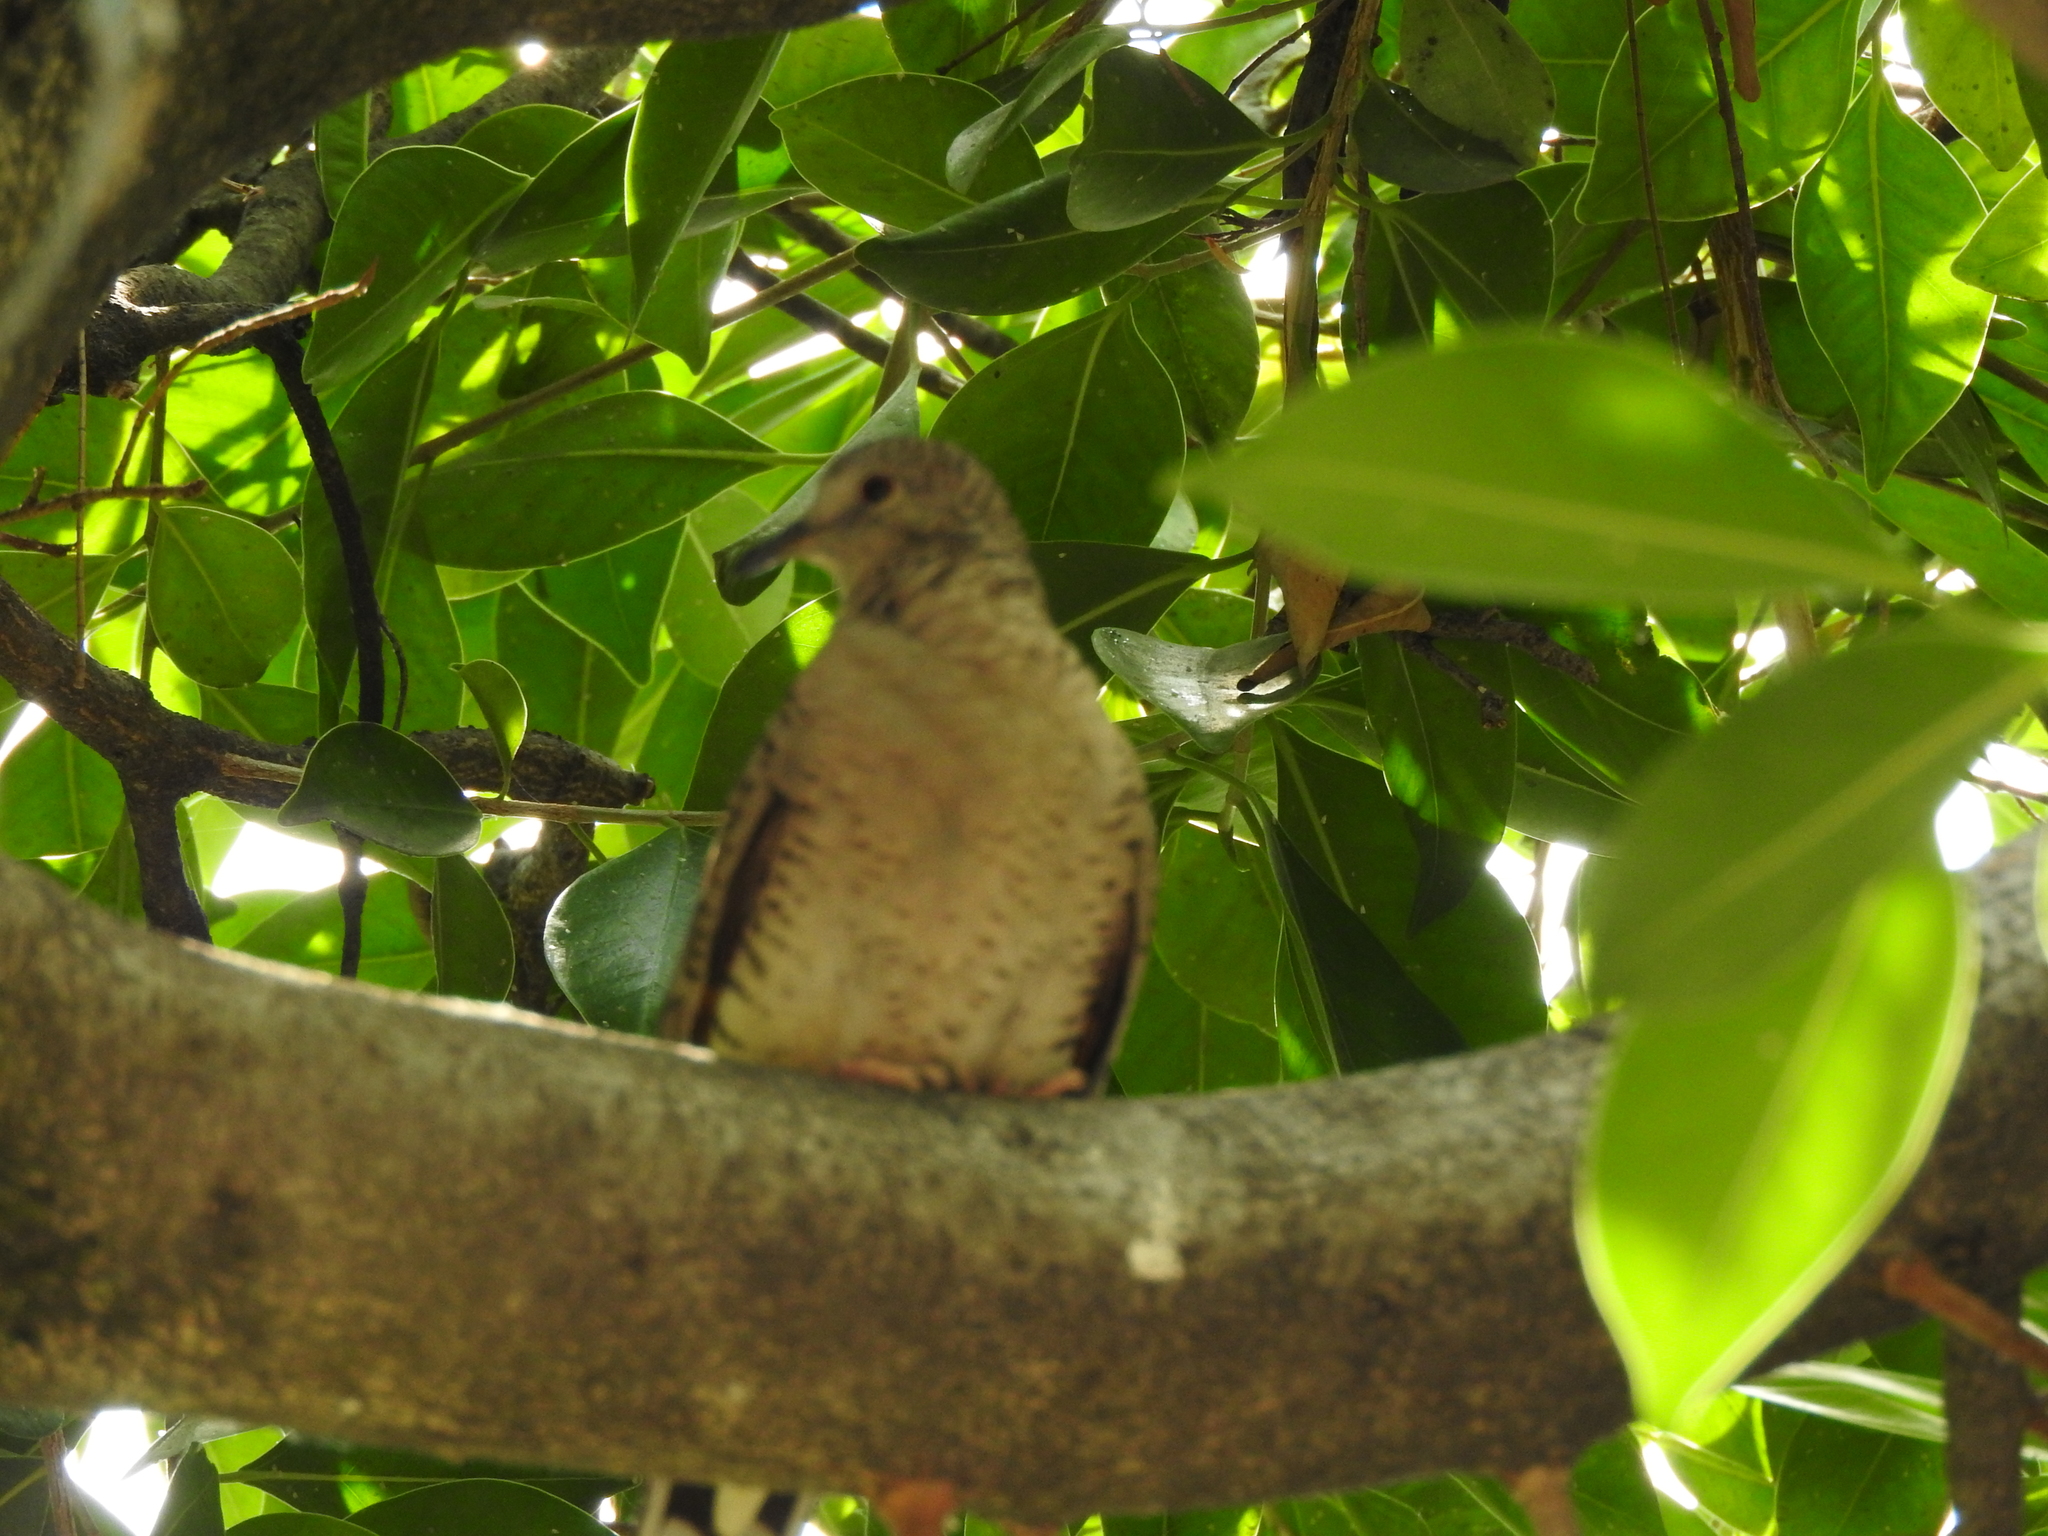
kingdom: Animalia
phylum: Chordata
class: Aves
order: Columbiformes
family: Columbidae
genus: Columbina
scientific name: Columbina inca
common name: Inca dove
